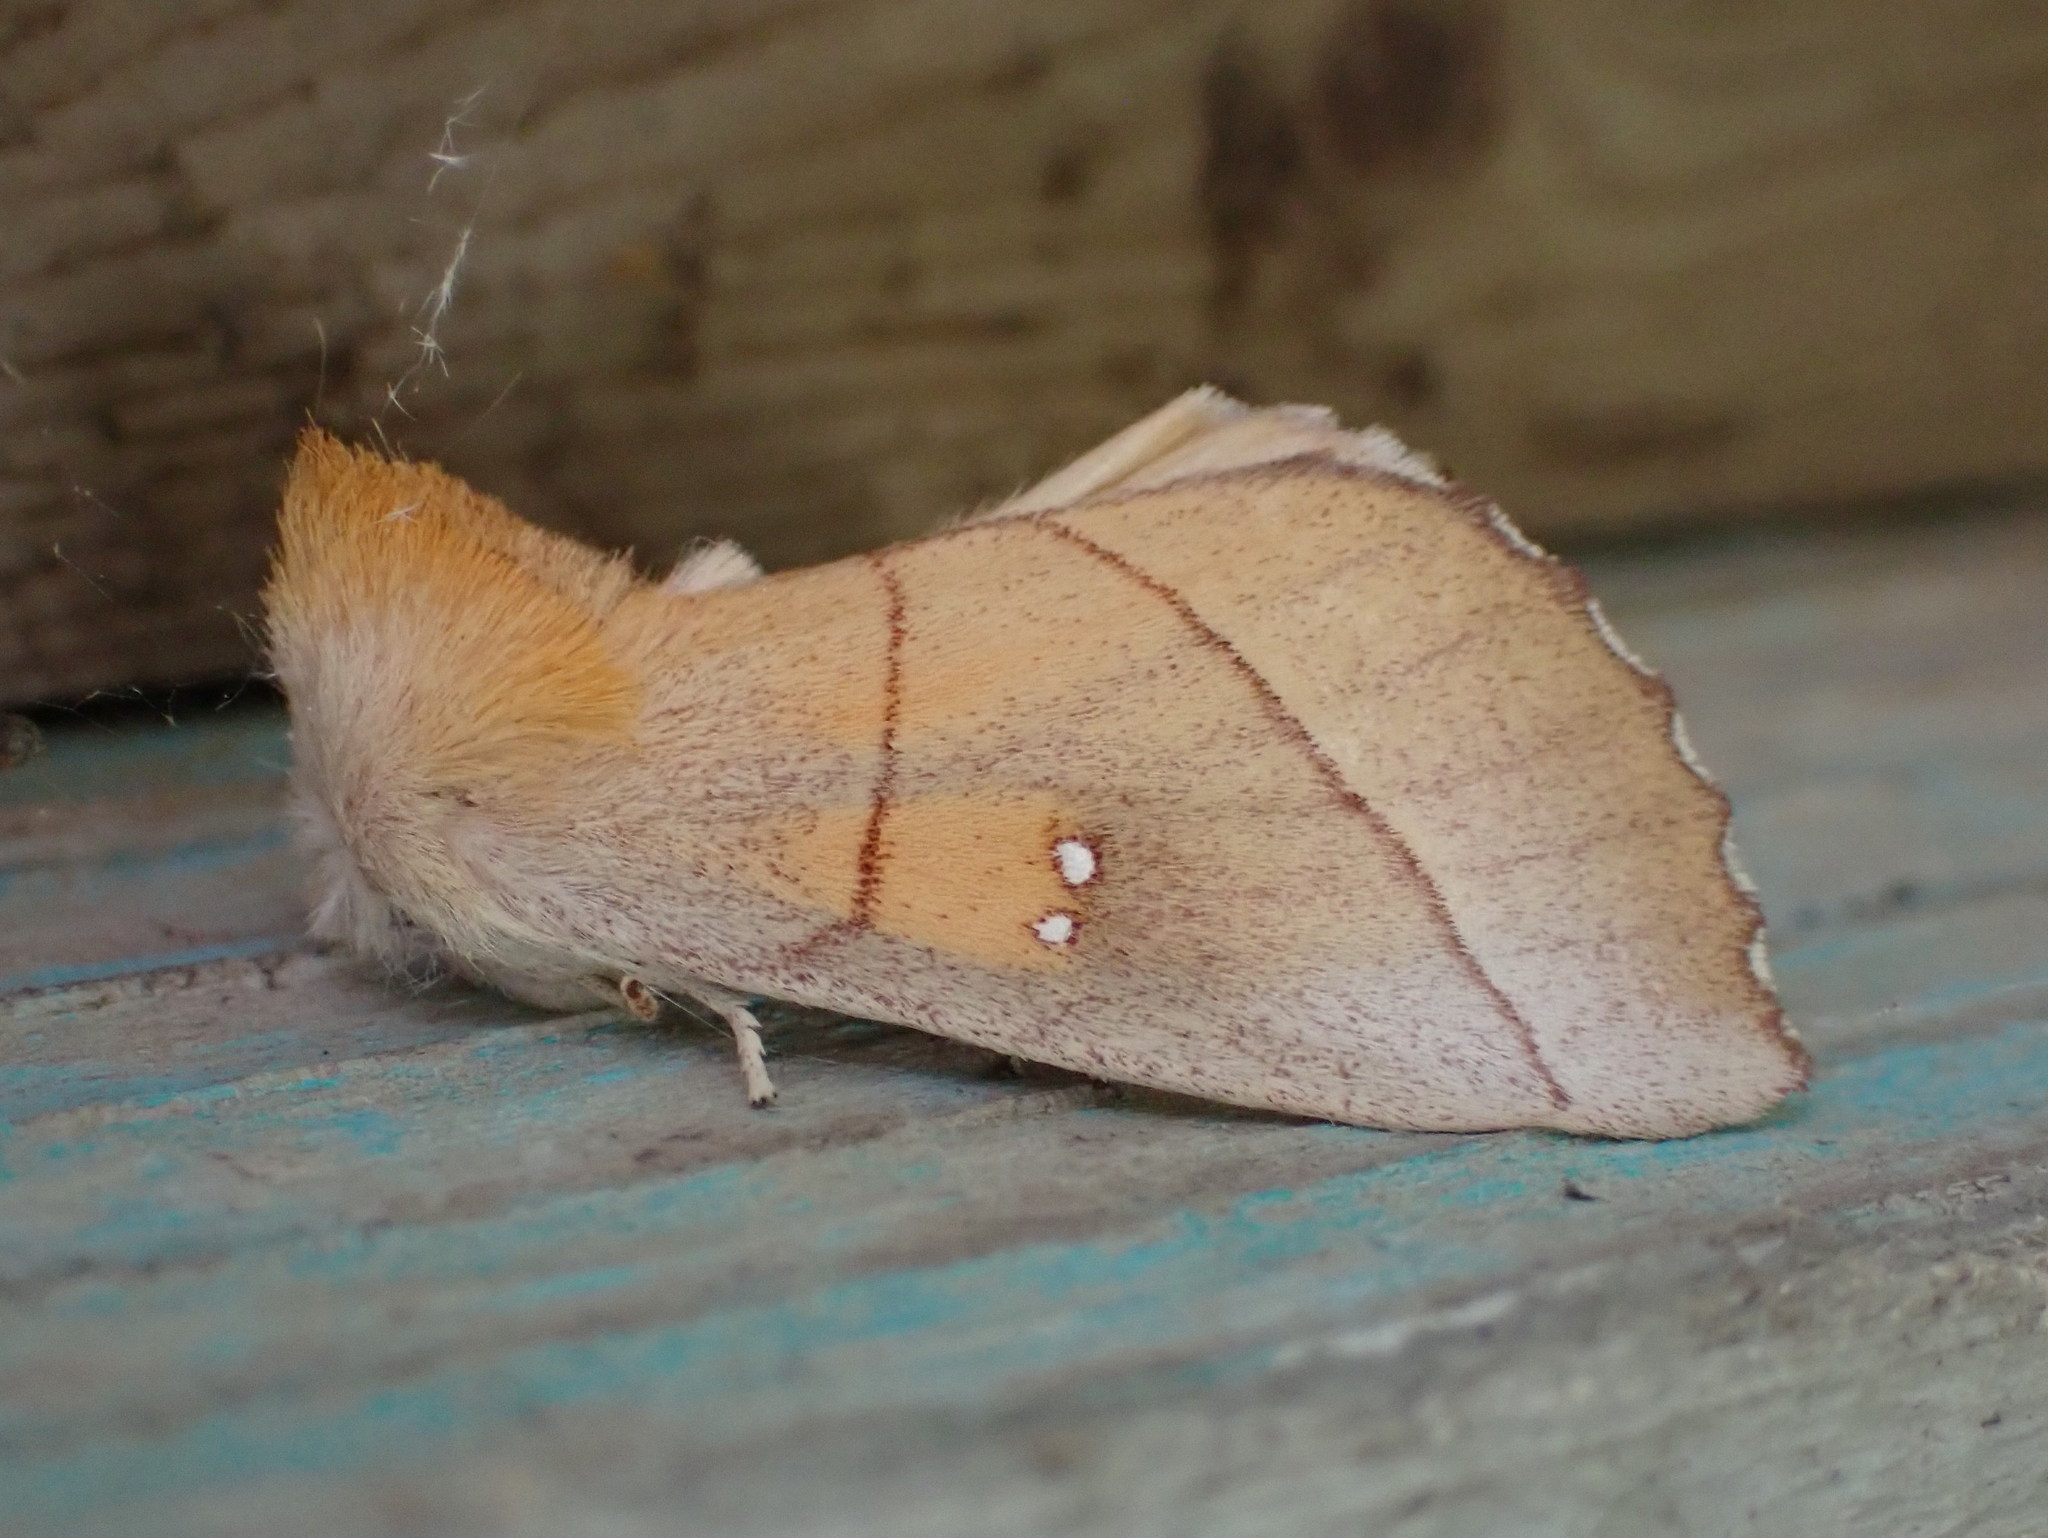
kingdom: Animalia
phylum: Arthropoda
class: Insecta
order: Lepidoptera
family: Notodontidae
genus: Nadata
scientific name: Nadata gibbosa
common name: White-dotted prominent
